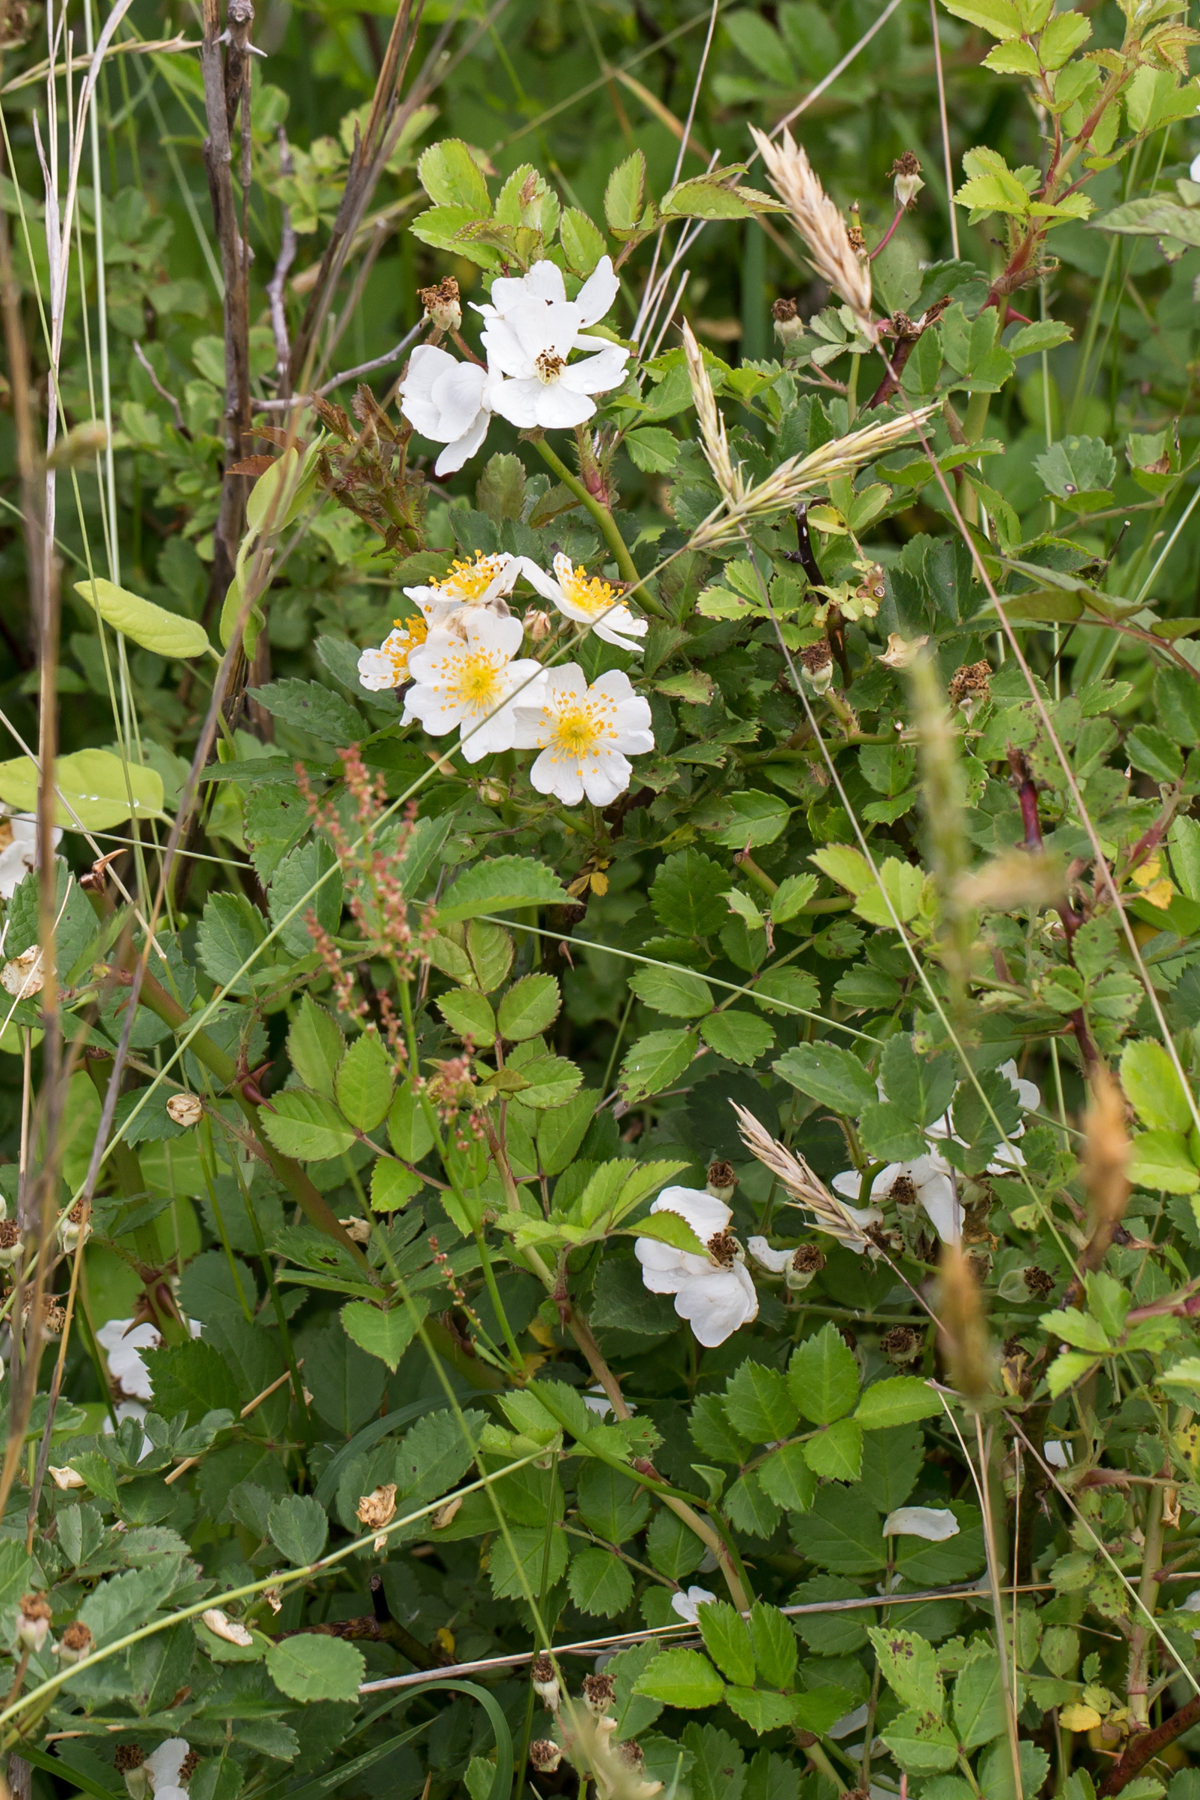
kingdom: Plantae
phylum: Tracheophyta
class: Magnoliopsida
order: Rosales
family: Rosaceae
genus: Rosa
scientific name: Rosa multiflora
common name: Multiflora rose
